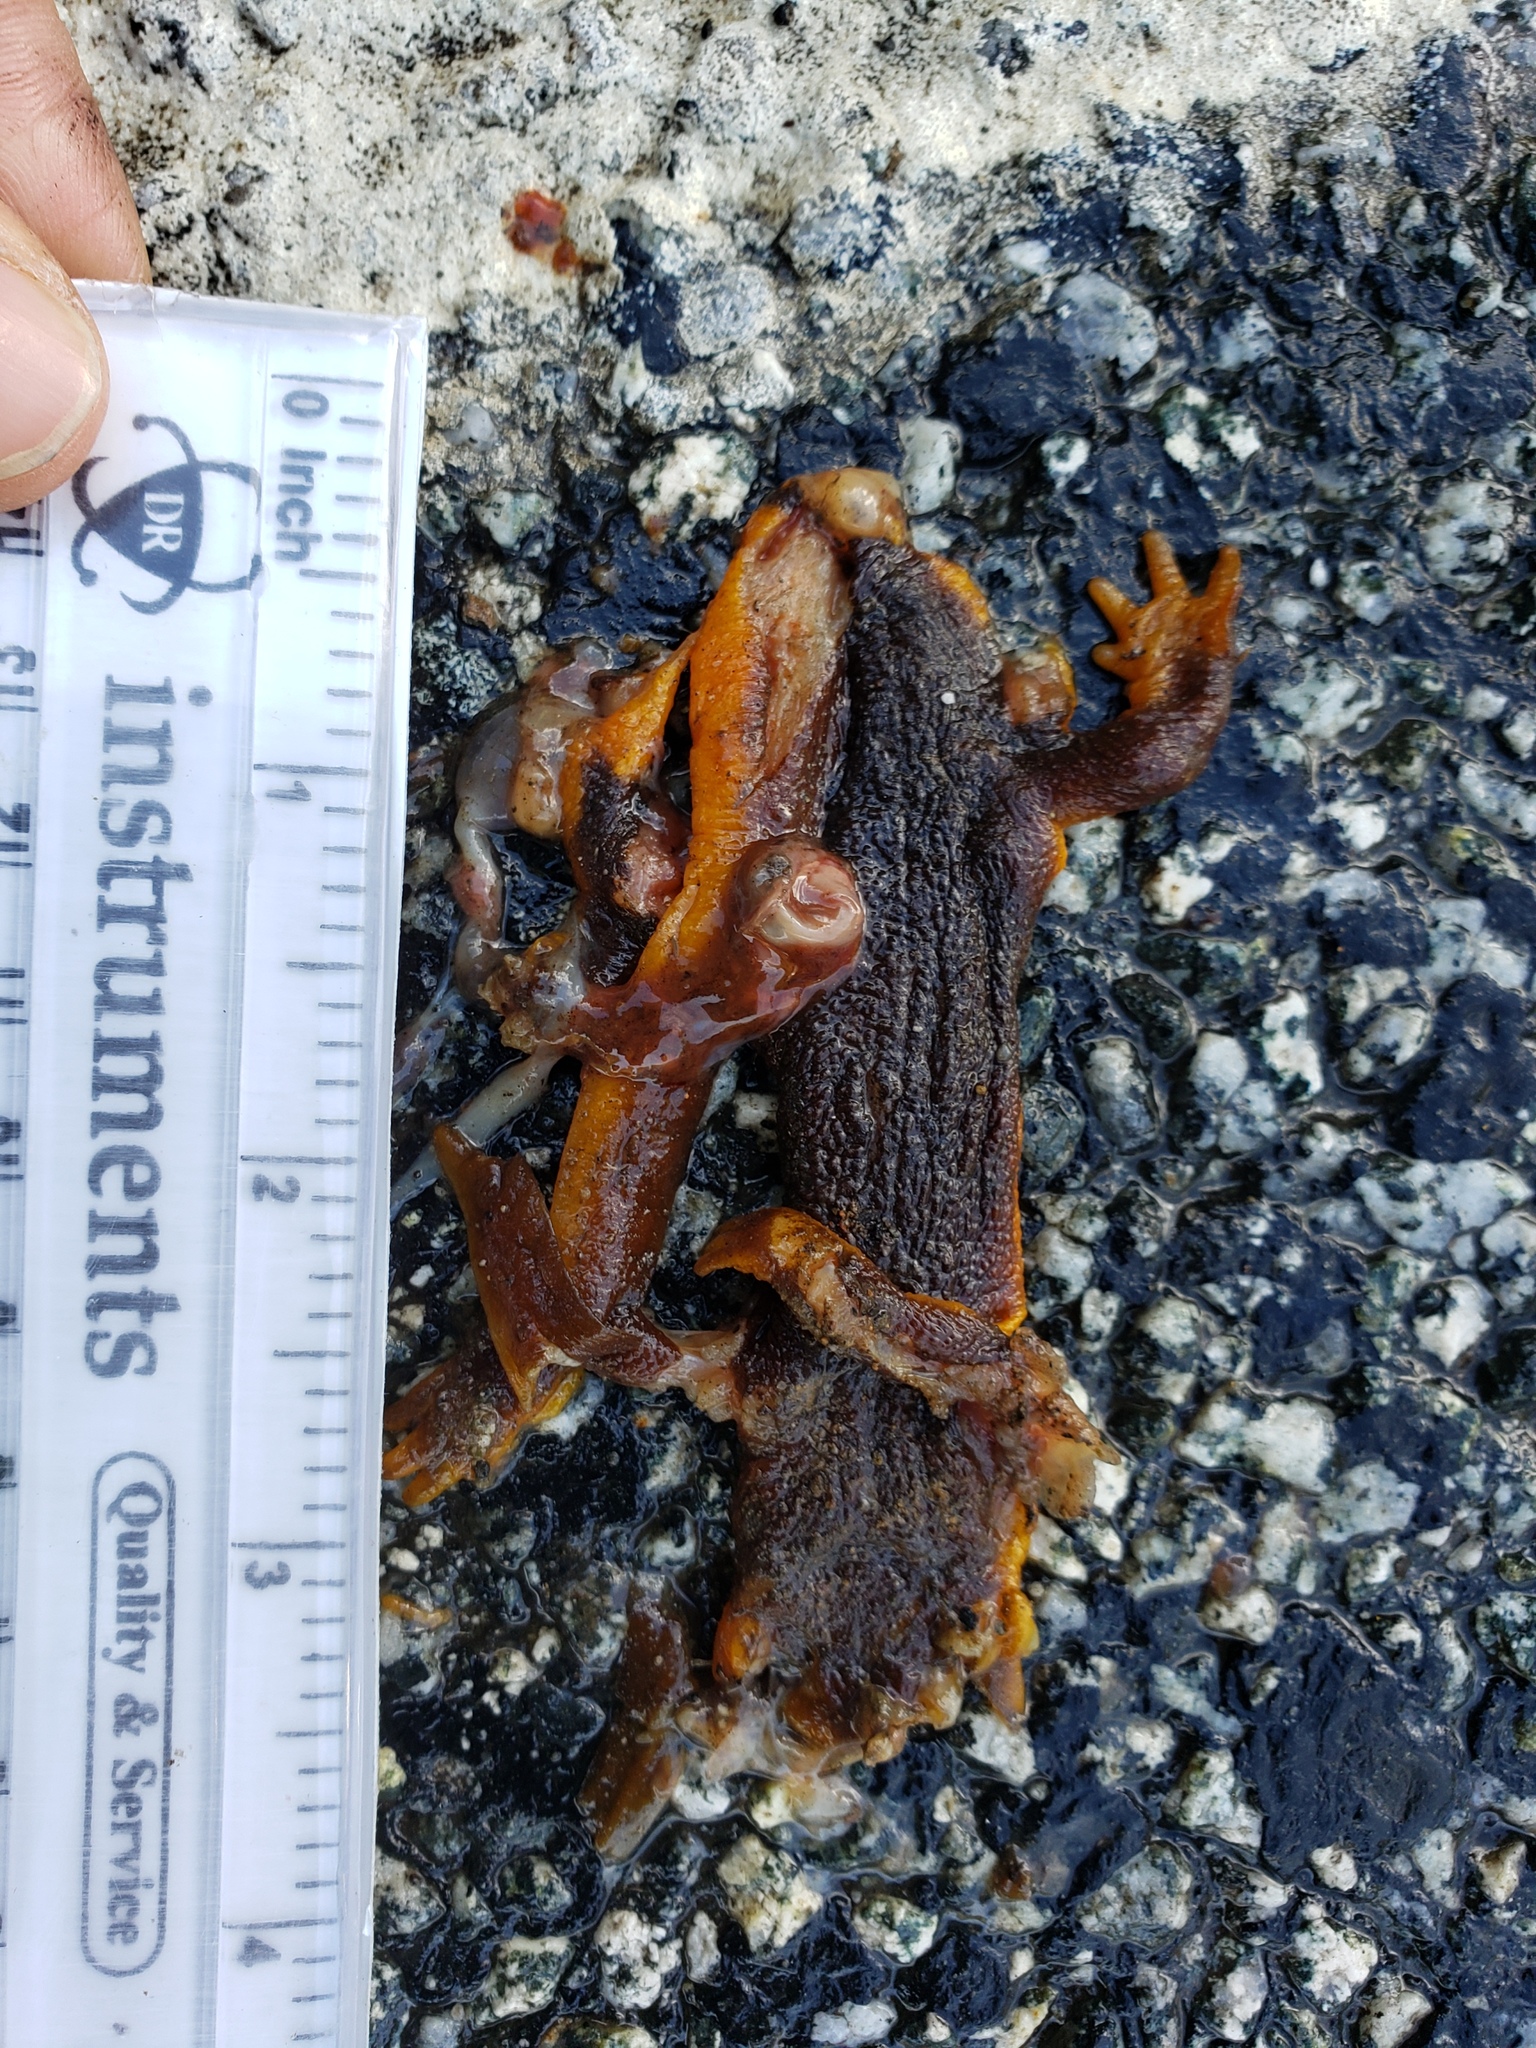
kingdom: Animalia
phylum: Chordata
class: Amphibia
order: Caudata
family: Salamandridae
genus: Taricha
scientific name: Taricha
